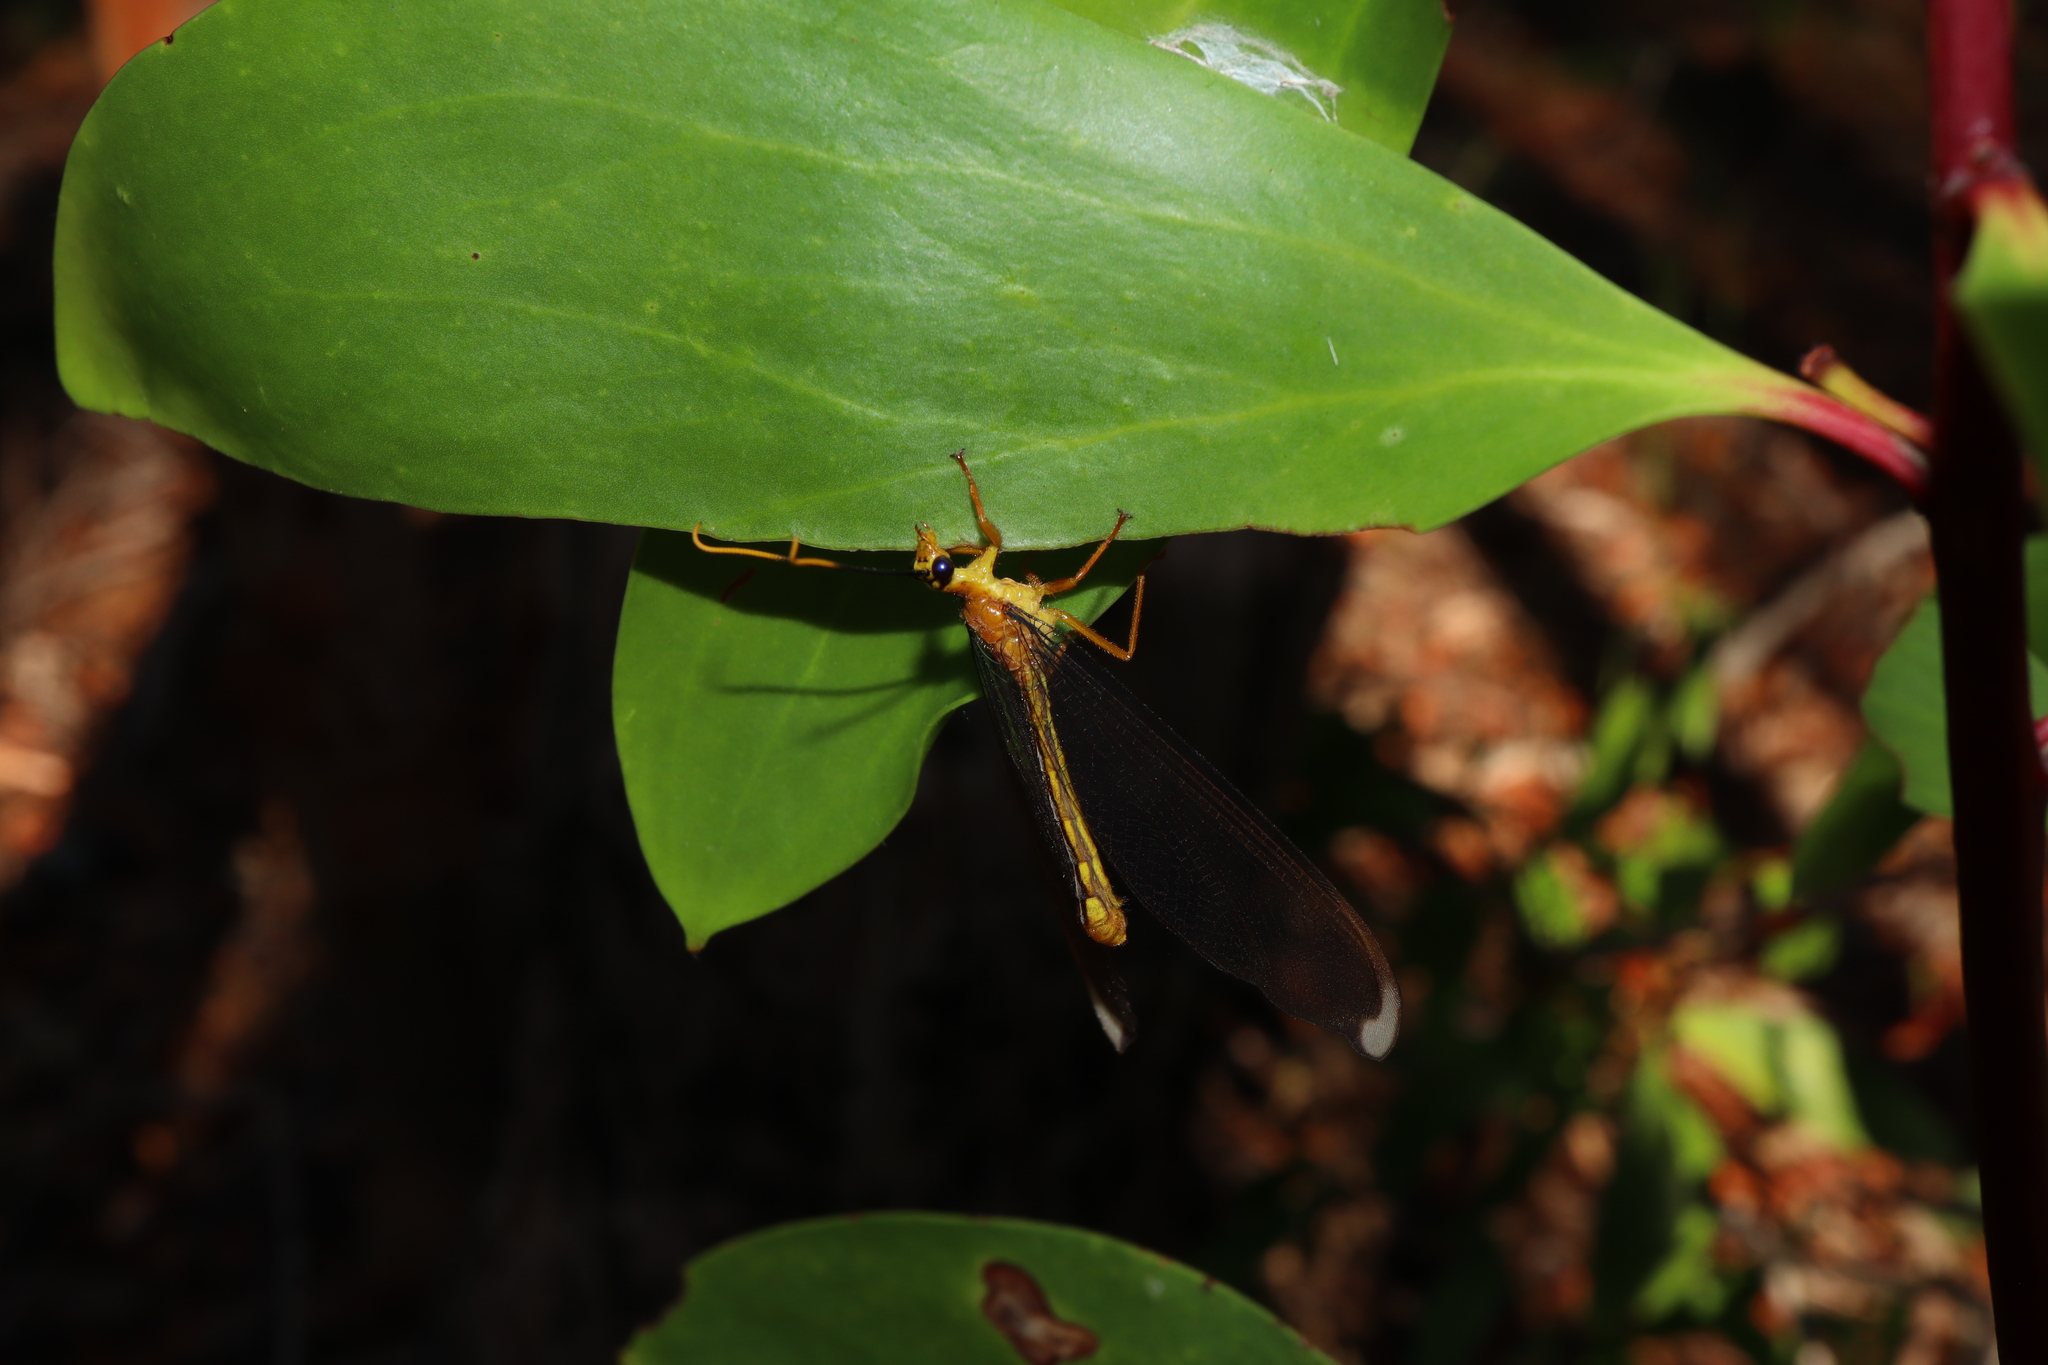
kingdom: Animalia
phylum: Arthropoda
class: Insecta
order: Neuroptera
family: Nymphidae
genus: Nymphes
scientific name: Nymphes myrmeleonoides
